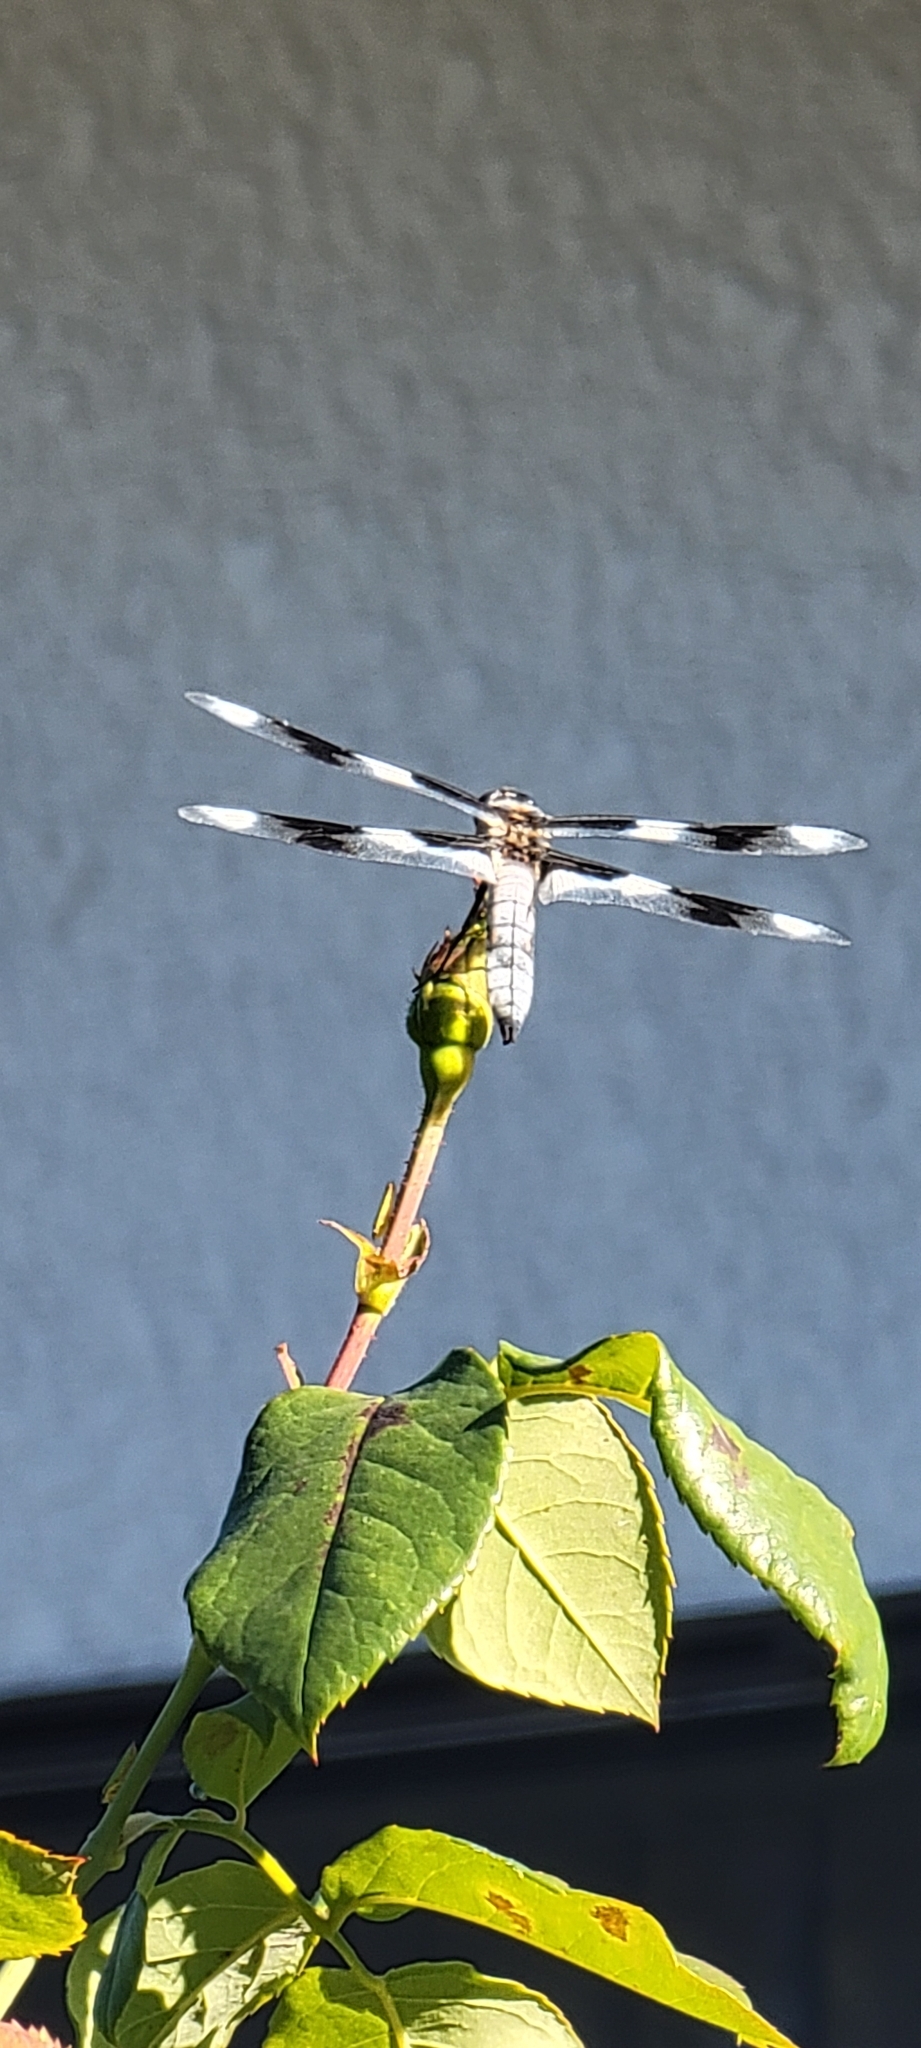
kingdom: Animalia
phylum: Arthropoda
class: Insecta
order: Odonata
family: Libellulidae
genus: Libellula
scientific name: Libellula forensis
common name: Eight-spotted skimmer
